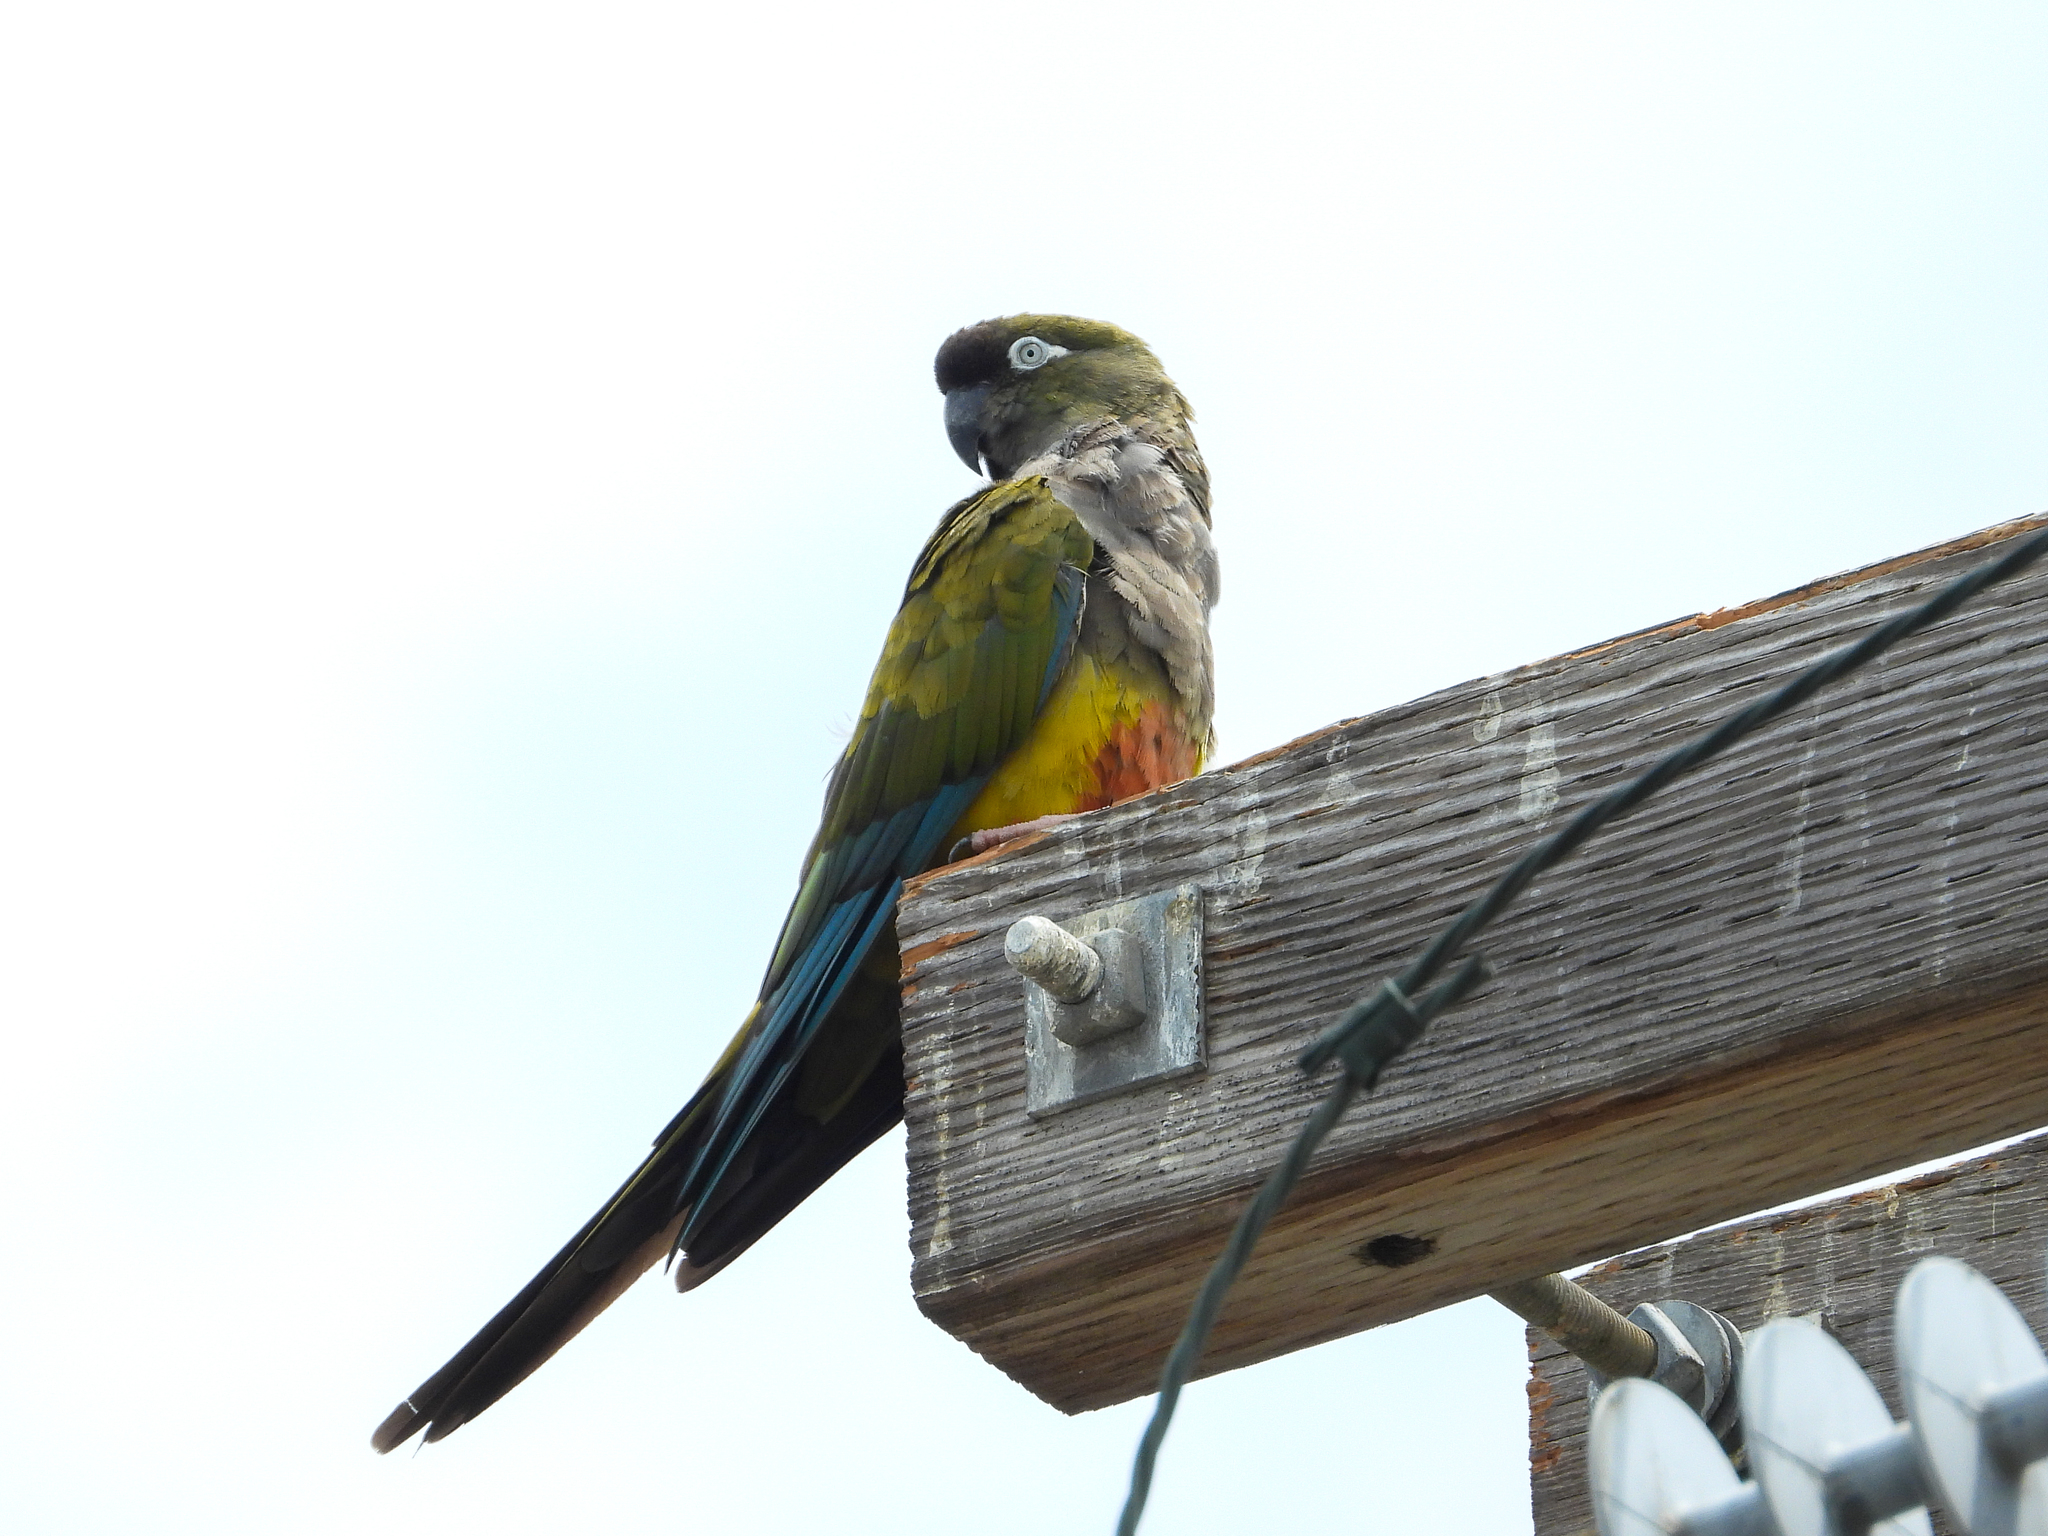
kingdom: Animalia
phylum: Chordata
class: Aves
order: Psittaciformes
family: Psittacidae
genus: Cyanoliseus
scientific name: Cyanoliseus patagonus
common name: Burrowing parrot
